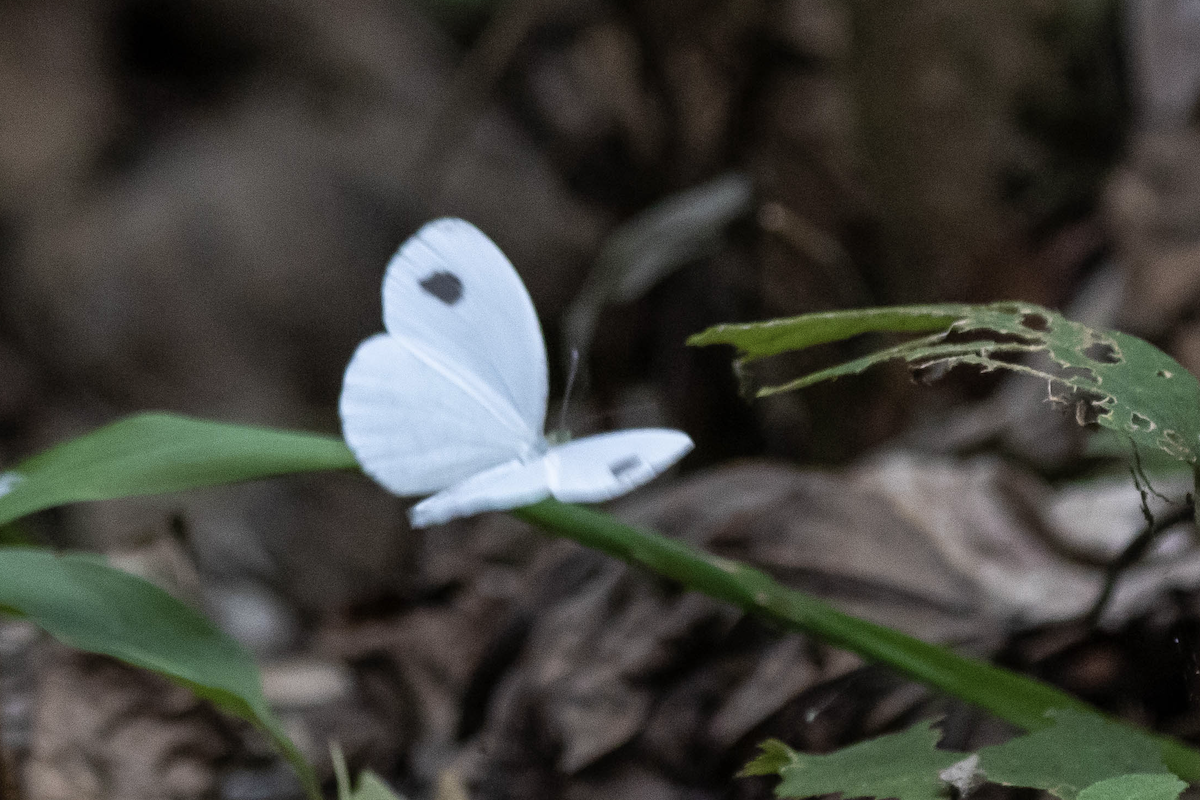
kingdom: Animalia
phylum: Arthropoda
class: Insecta
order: Lepidoptera
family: Pieridae
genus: Leptosia
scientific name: Leptosia nina
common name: Psyche
